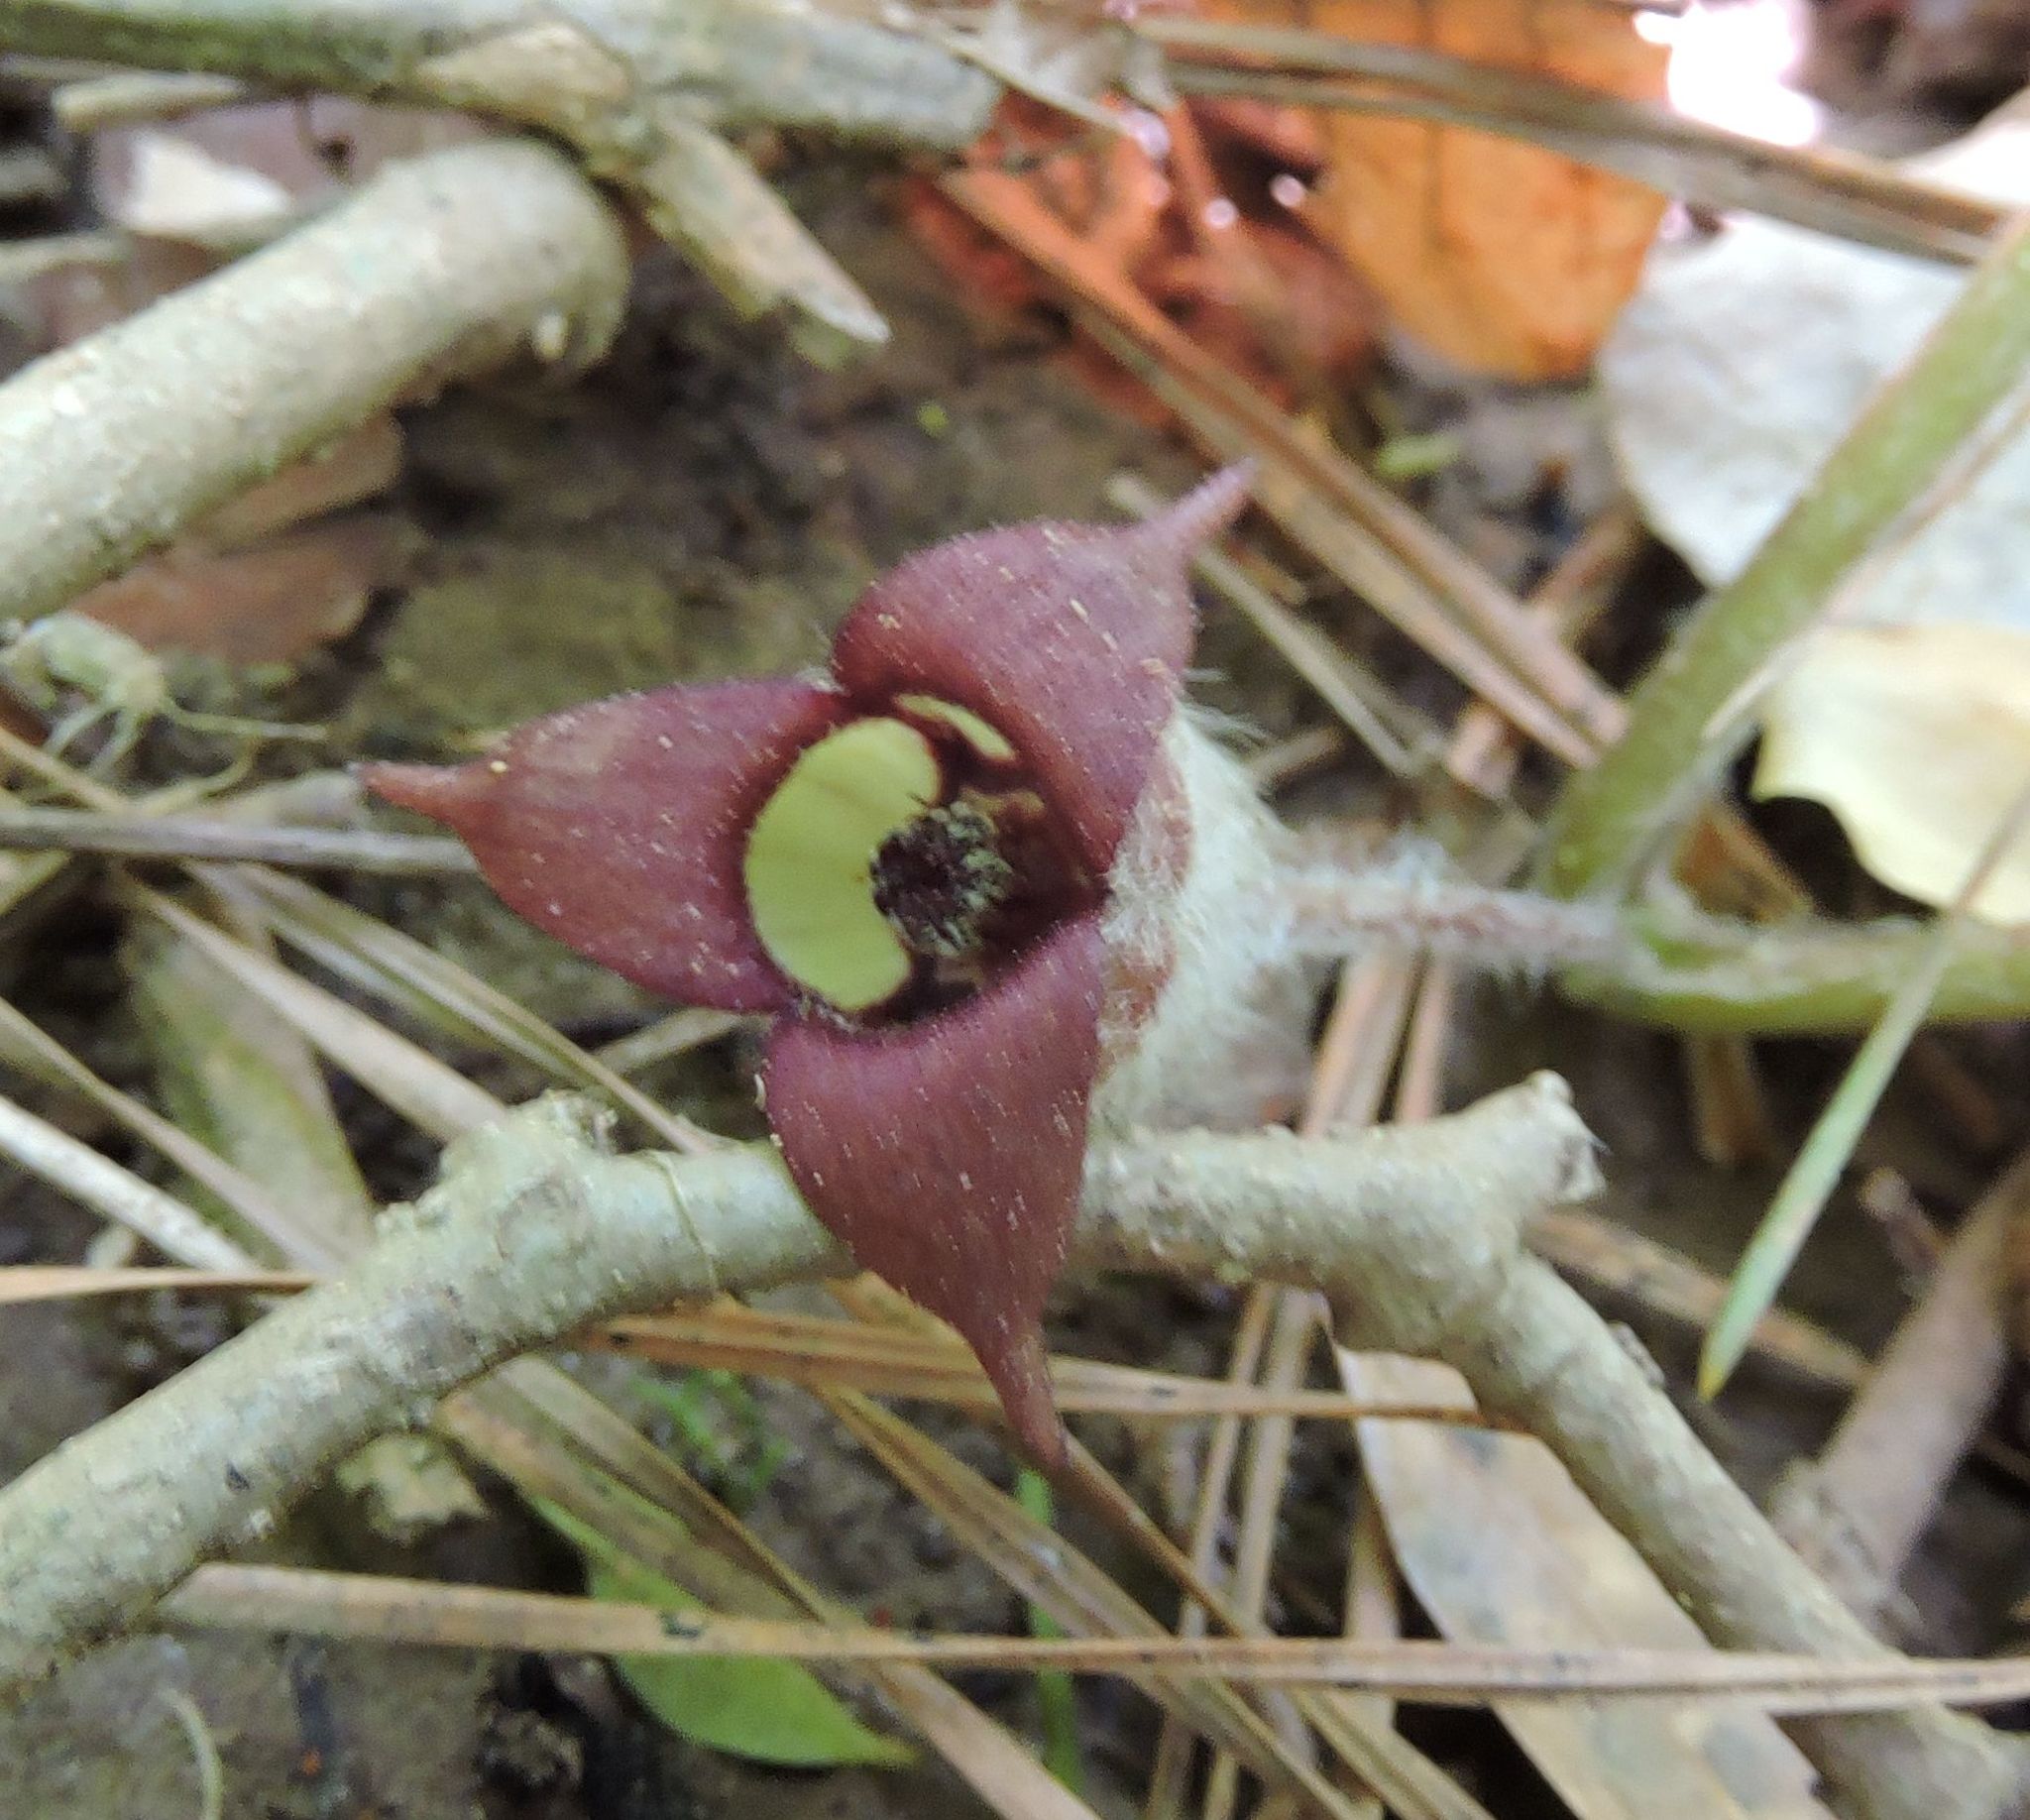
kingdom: Plantae
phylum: Tracheophyta
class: Magnoliopsida
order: Piperales
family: Aristolochiaceae
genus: Asarum
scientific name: Asarum canadense
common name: Wild ginger
